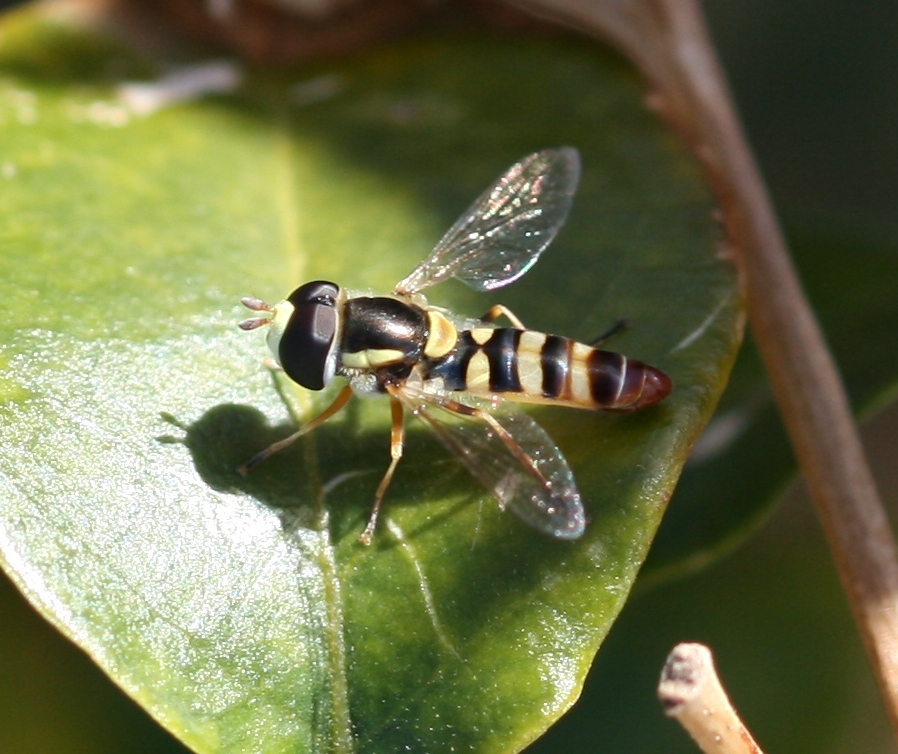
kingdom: Animalia
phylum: Arthropoda
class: Insecta
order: Diptera
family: Syrphidae
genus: Ischiodon
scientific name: Ischiodon aegyptius
